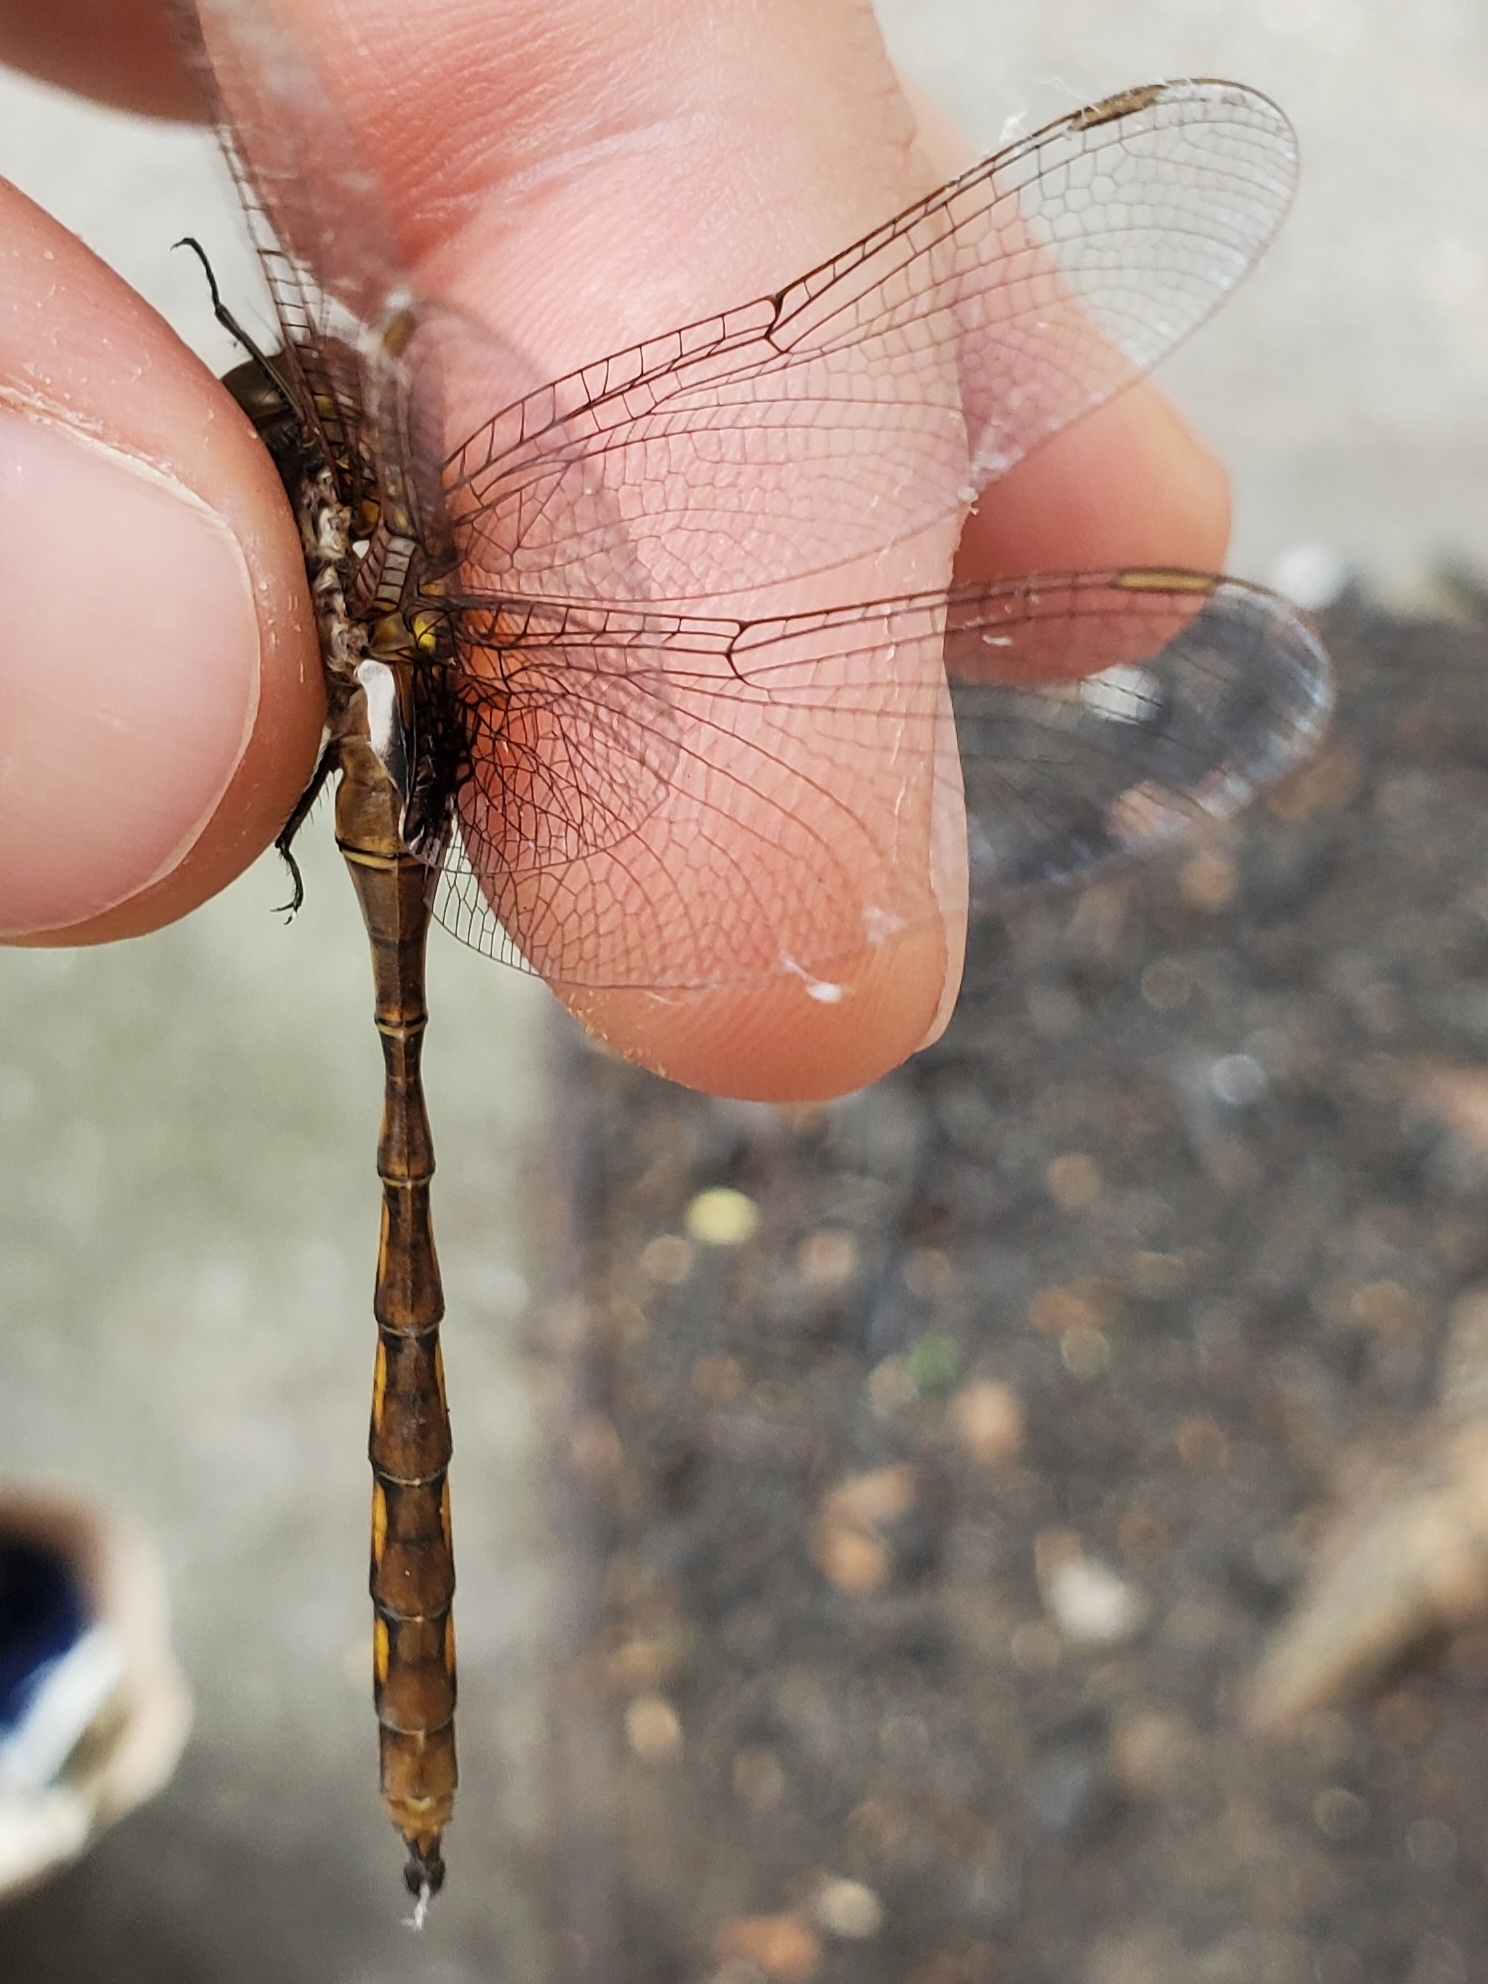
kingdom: Animalia
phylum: Arthropoda
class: Insecta
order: Odonata
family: Corduliidae
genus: Neurocordulia
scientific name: Neurocordulia yamaskanensis
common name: Stygian shadowdragon
